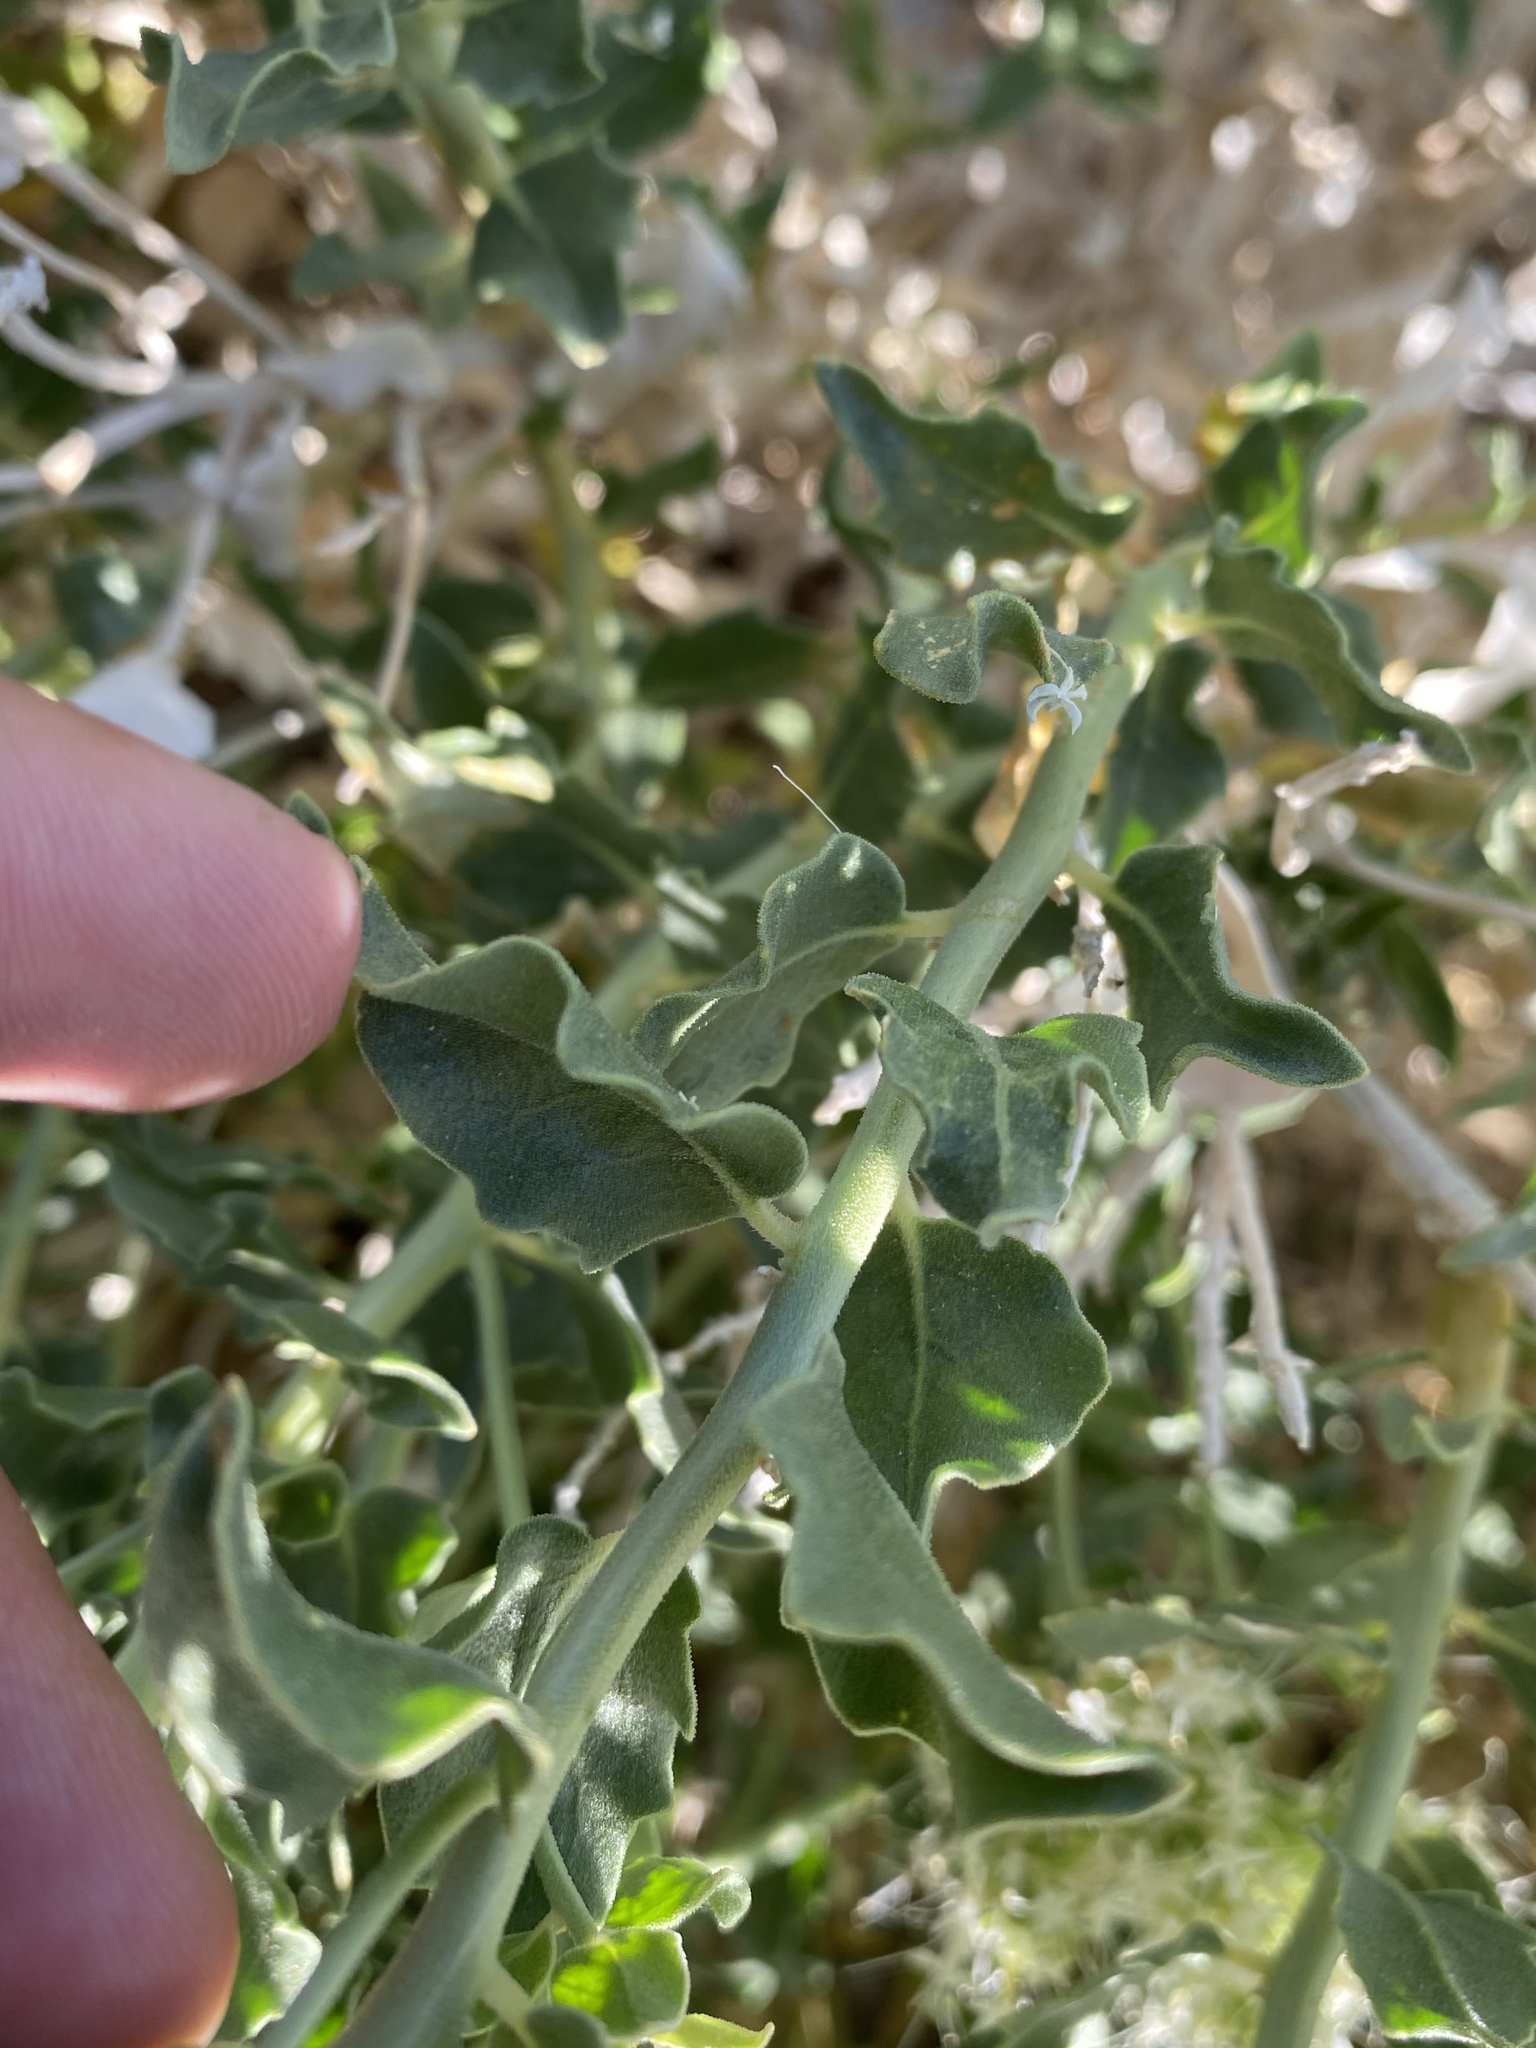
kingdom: Plantae
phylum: Tracheophyta
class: Magnoliopsida
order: Cornales
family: Loasaceae
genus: Petalonyx
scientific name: Petalonyx nitidus
